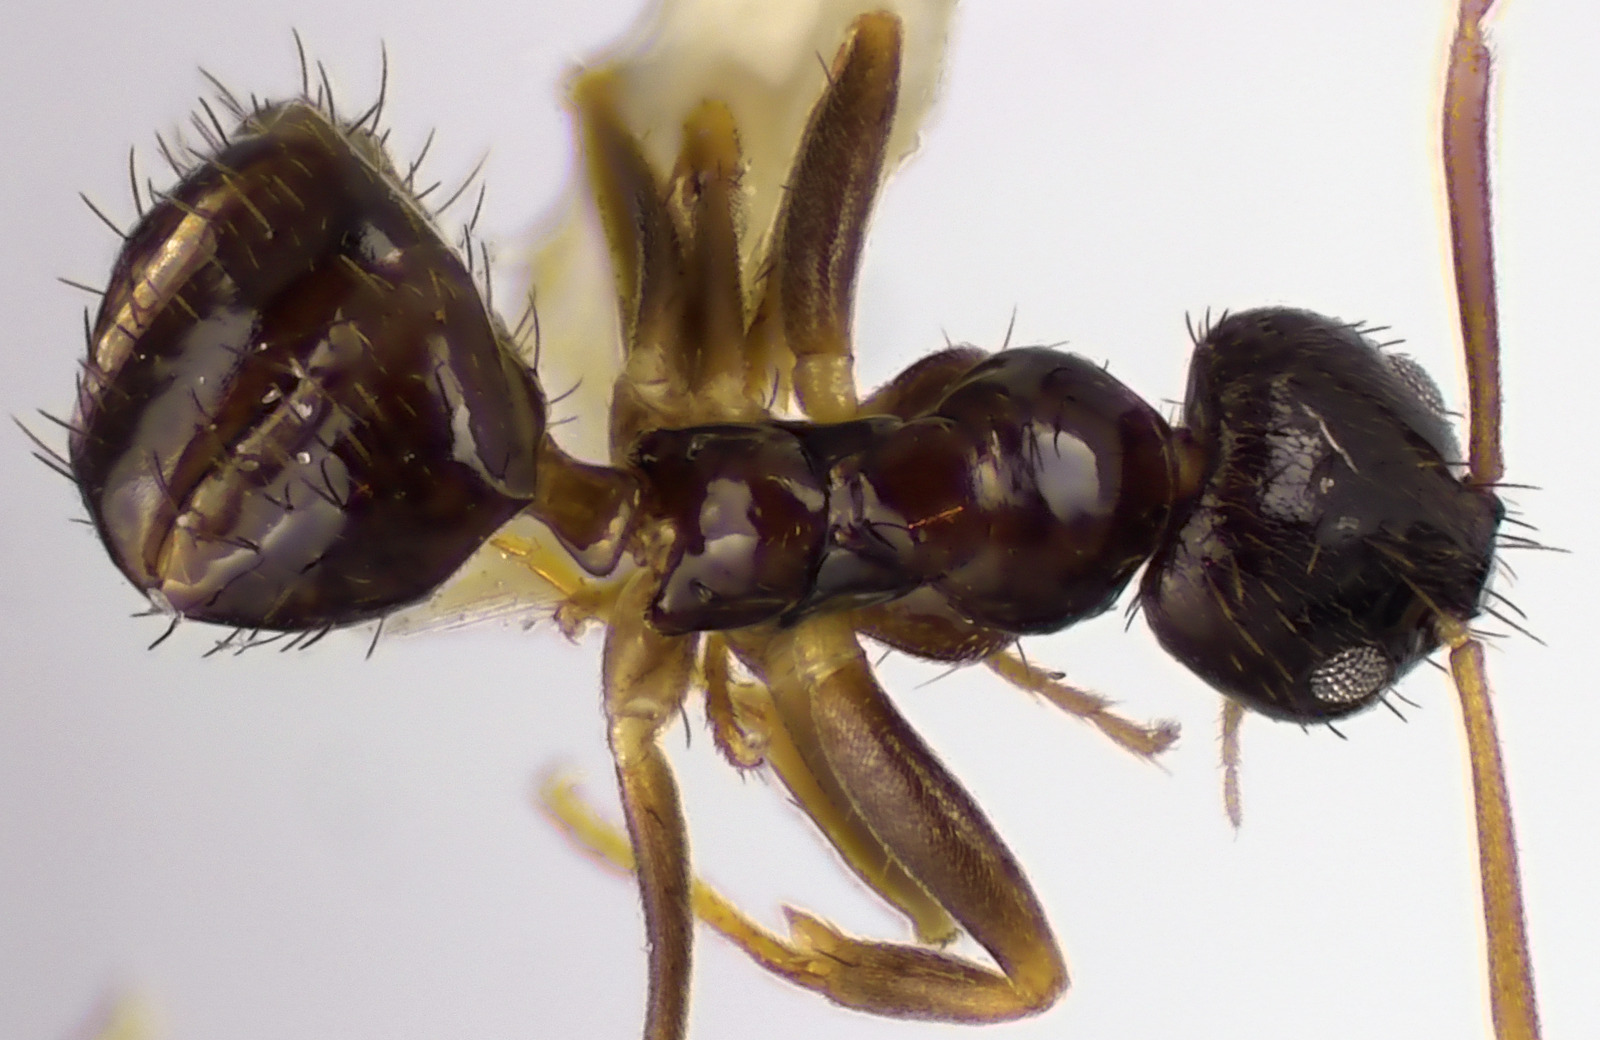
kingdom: Animalia
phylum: Arthropoda
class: Insecta
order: Hymenoptera
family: Formicidae
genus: Nylanderia
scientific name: Nylanderia parvula
